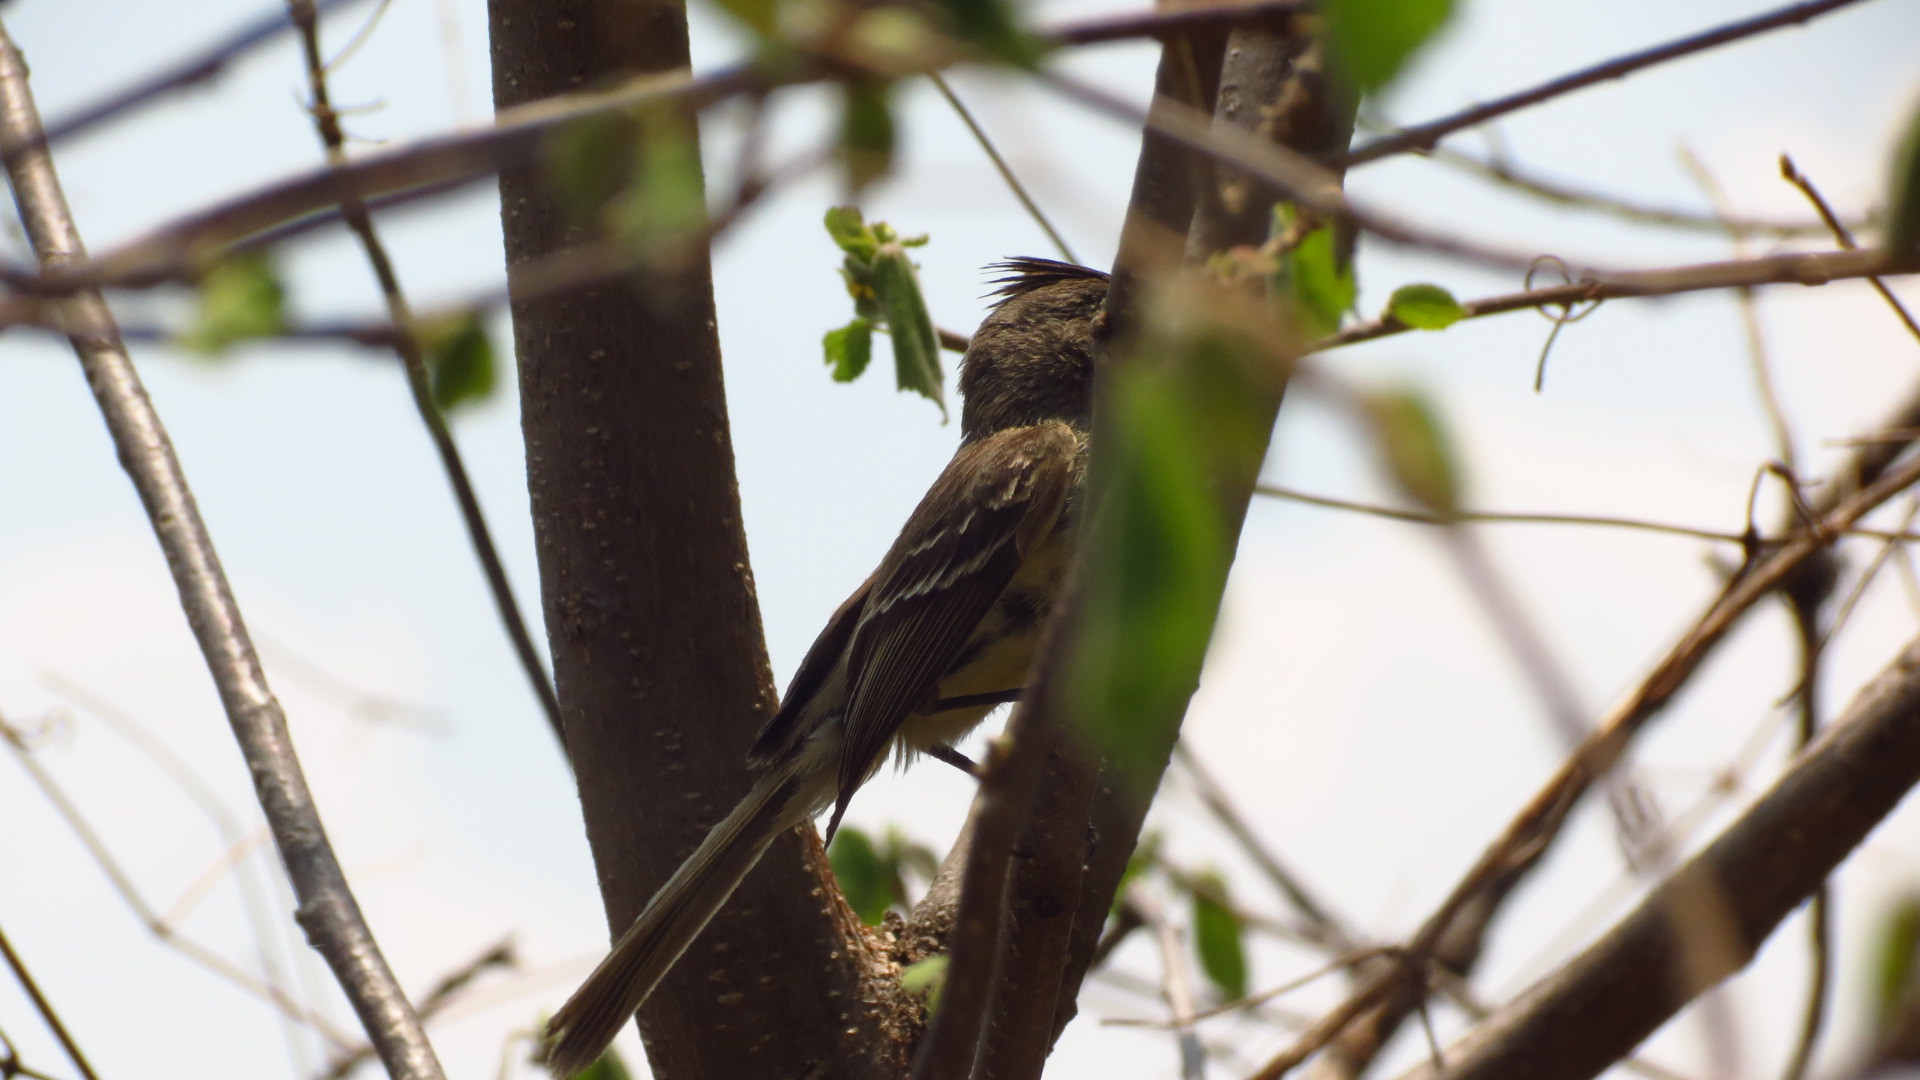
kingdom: Animalia
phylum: Chordata
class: Aves
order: Passeriformes
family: Tyrannidae
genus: Xenotriccus
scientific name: Xenotriccus mexicanus
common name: Pileated flycatcher
